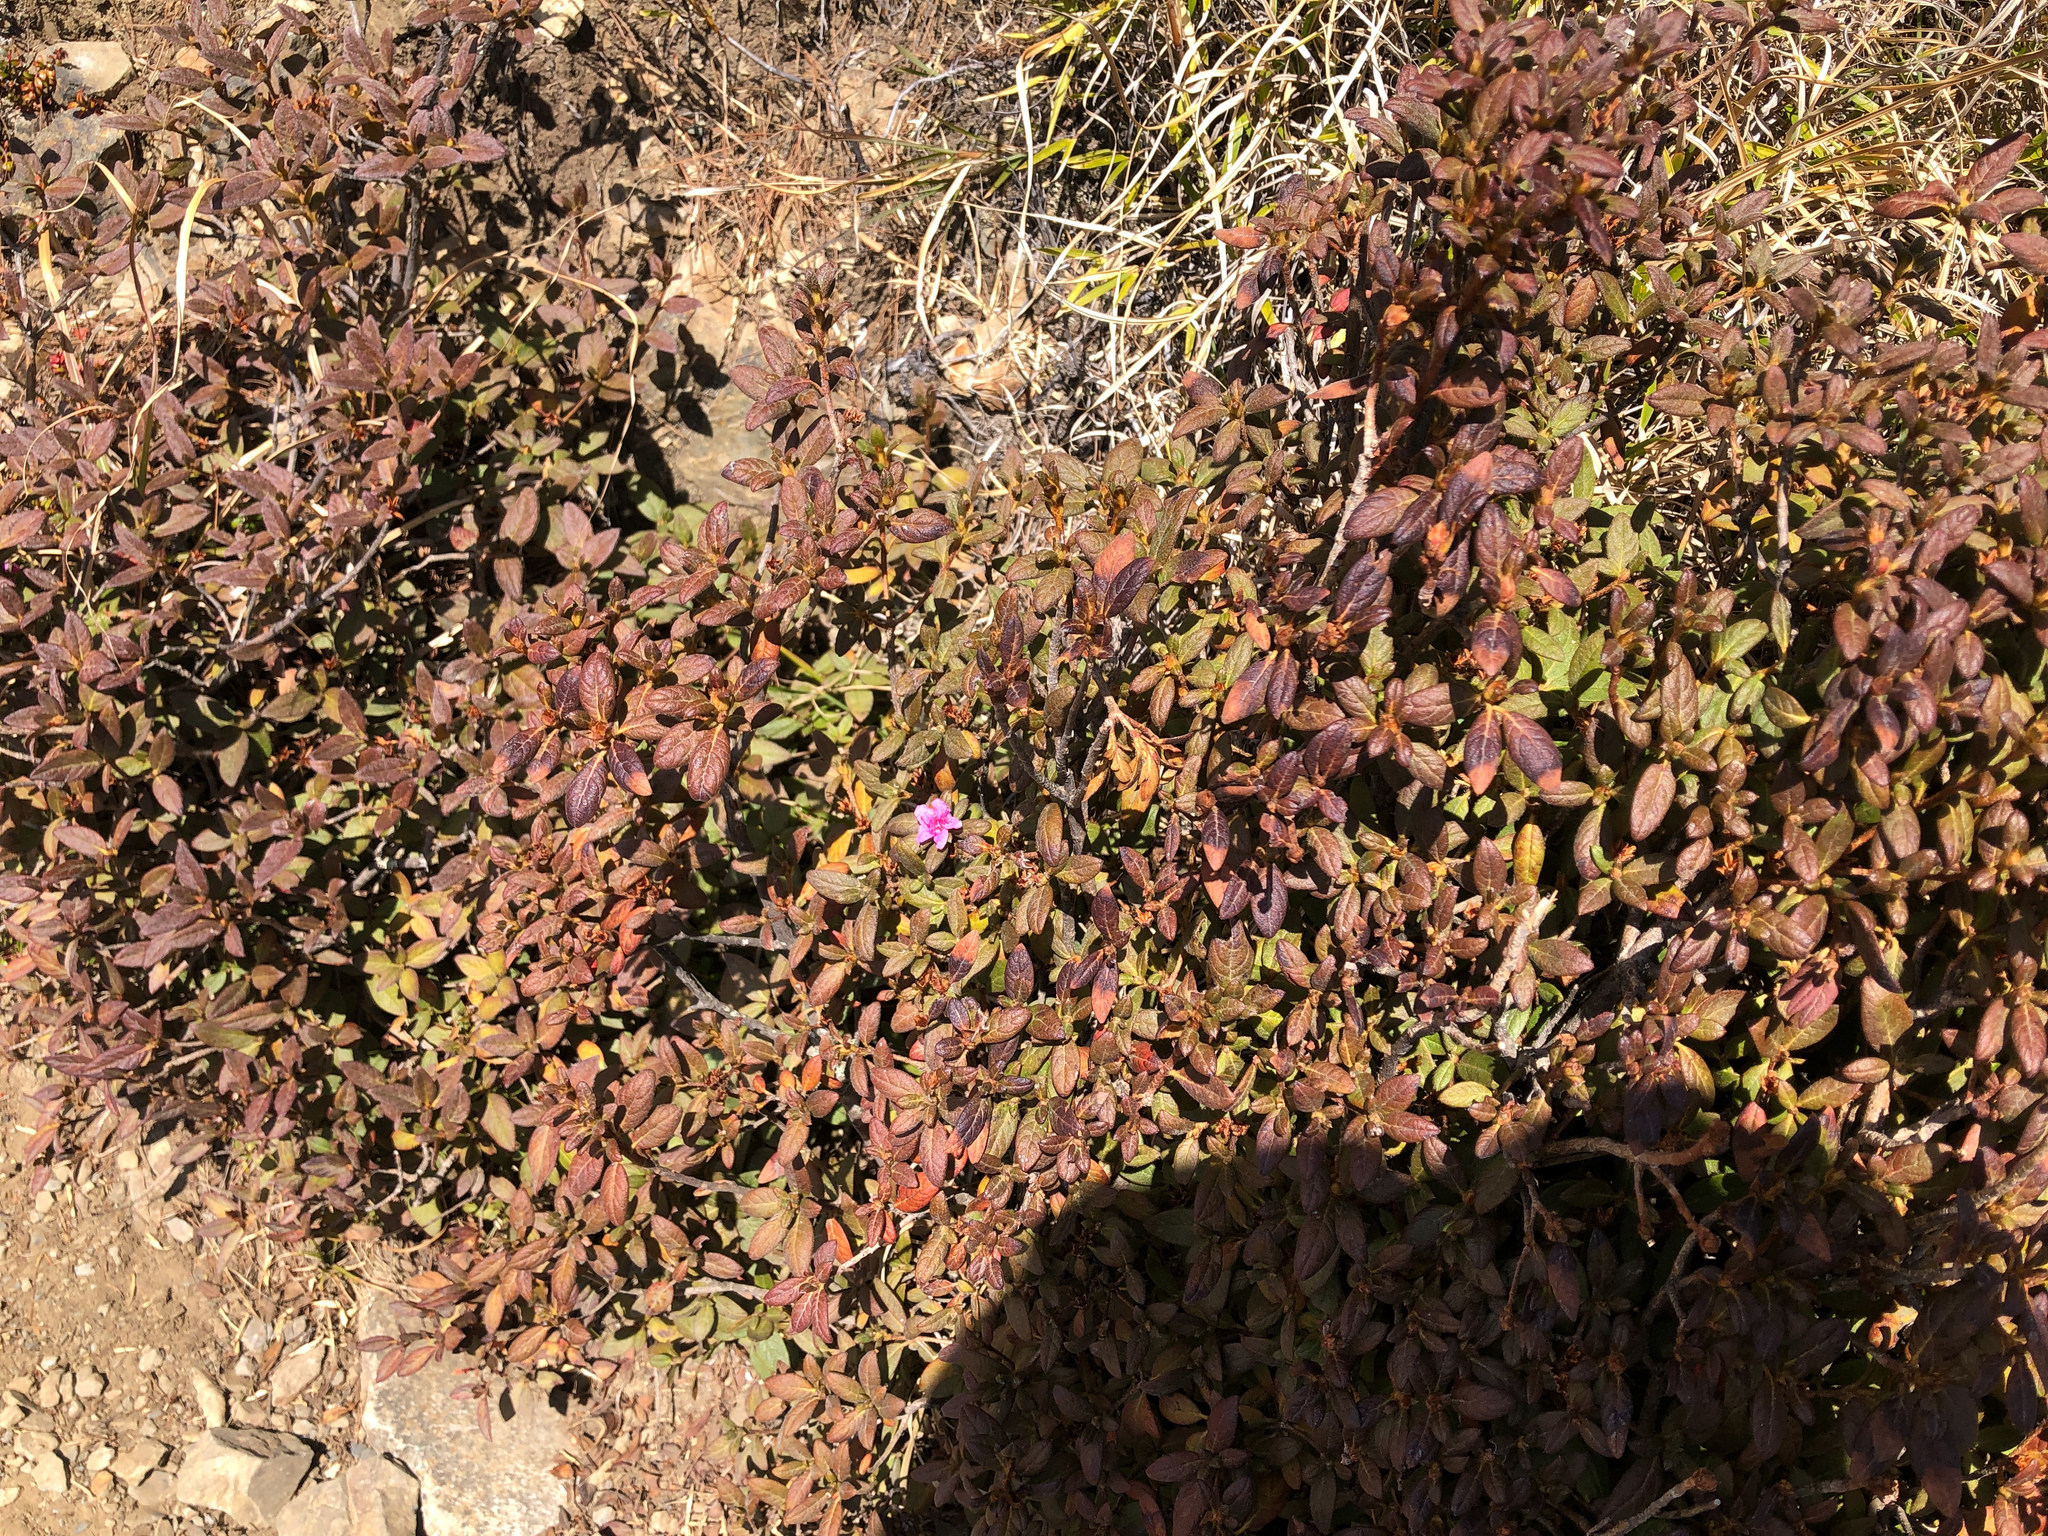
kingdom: Plantae
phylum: Tracheophyta
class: Magnoliopsida
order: Ericales
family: Ericaceae
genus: Rhododendron
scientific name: Rhododendron taiwanalpinum
